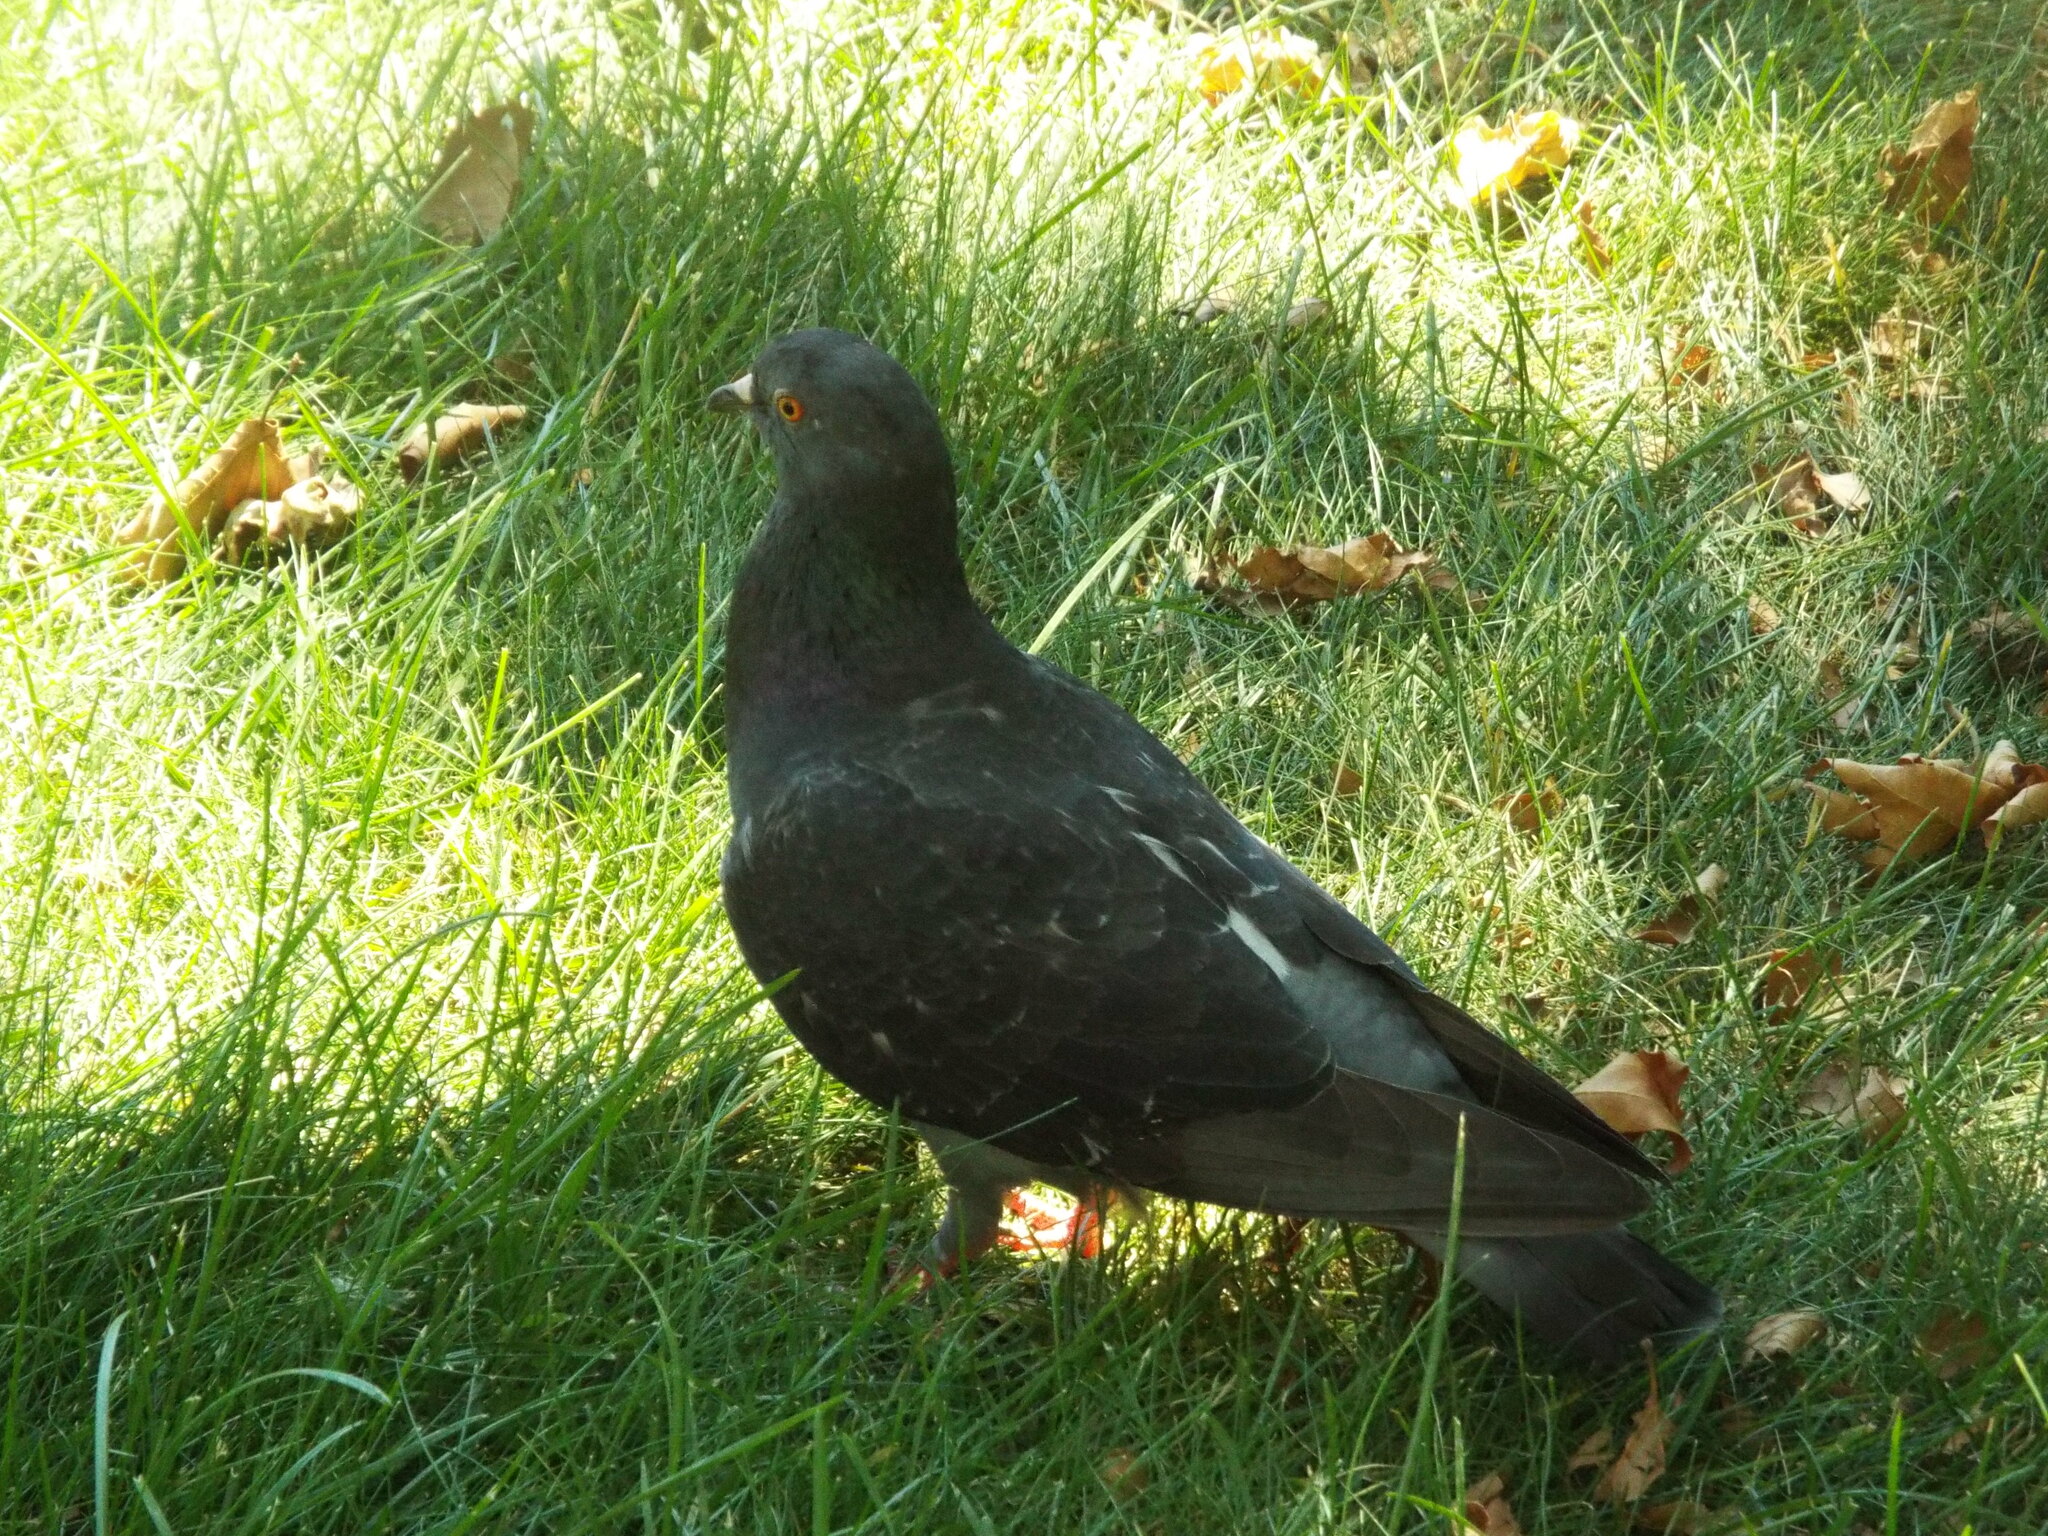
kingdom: Animalia
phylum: Chordata
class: Aves
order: Columbiformes
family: Columbidae
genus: Columba
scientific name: Columba livia
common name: Rock pigeon
